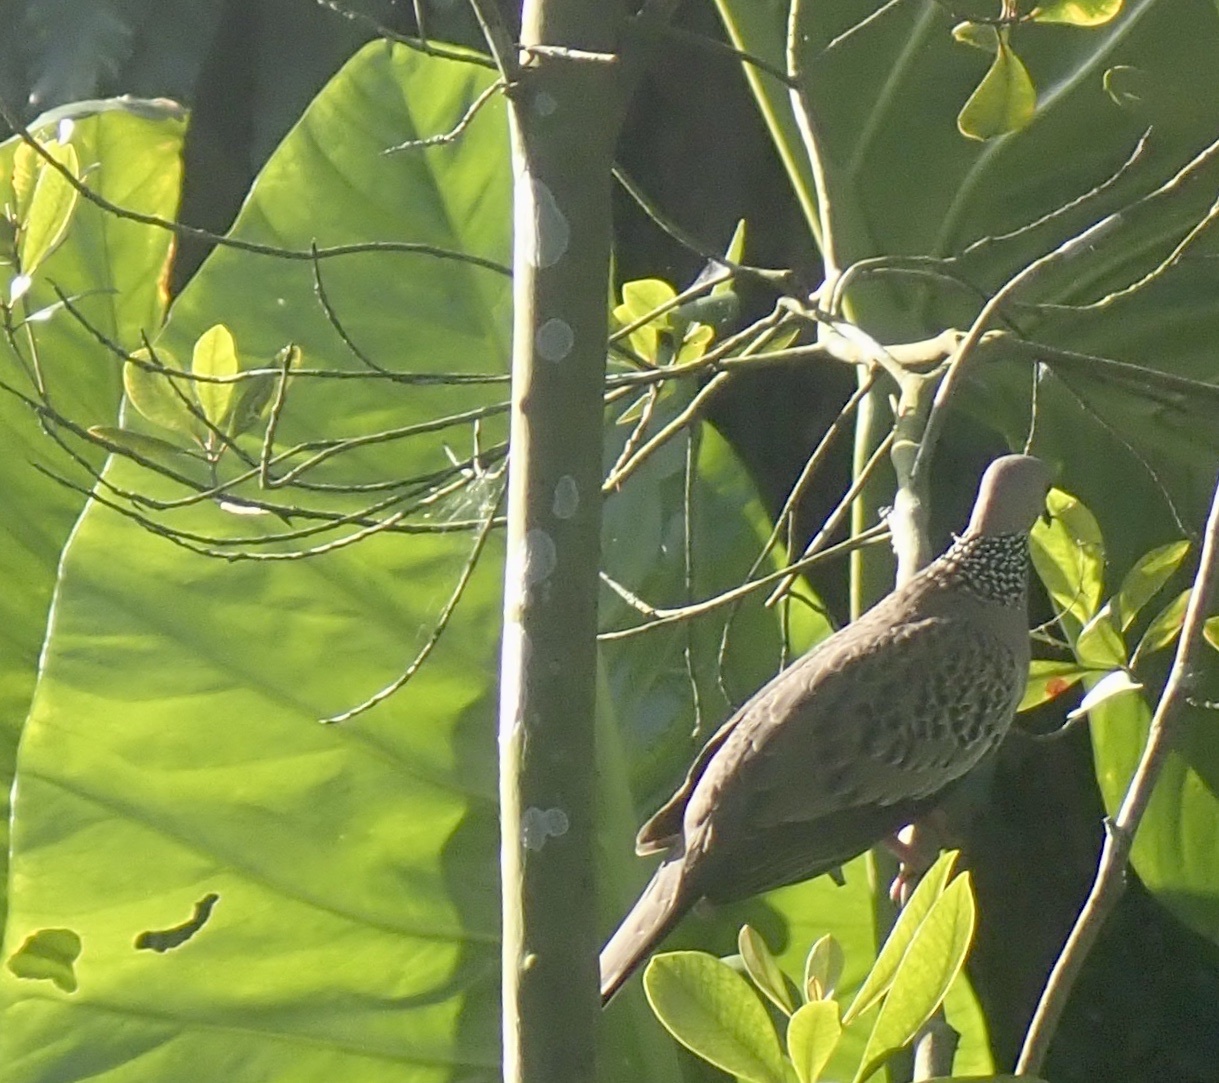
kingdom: Animalia
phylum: Chordata
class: Aves
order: Columbiformes
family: Columbidae
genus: Spilopelia
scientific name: Spilopelia chinensis
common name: Spotted dove
